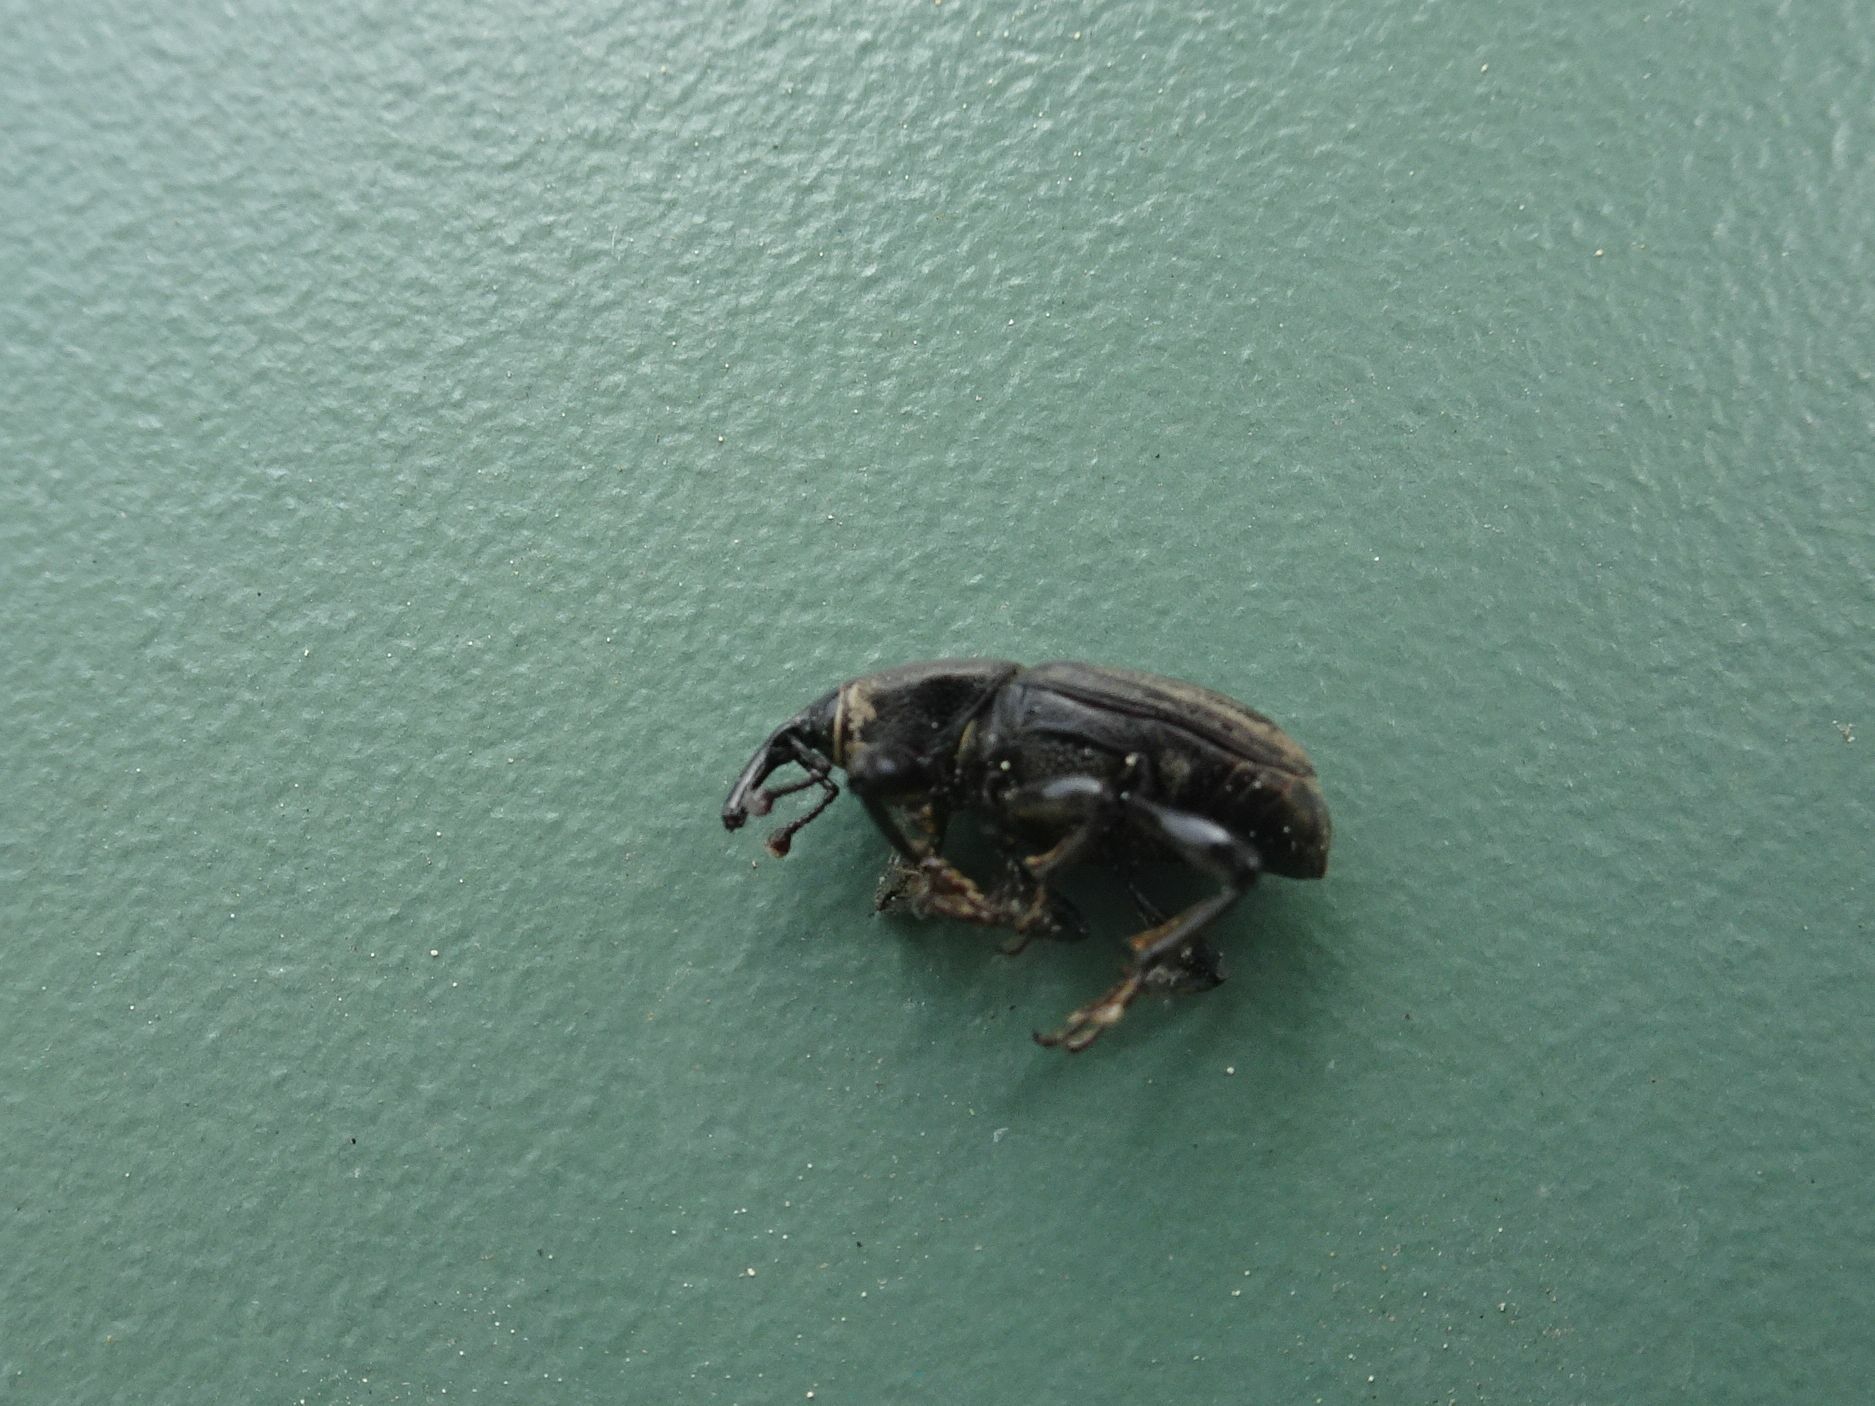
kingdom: Animalia
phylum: Arthropoda
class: Insecta
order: Coleoptera
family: Dryophthoridae
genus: Sphenophorus
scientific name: Sphenophorus striatopunctatus
